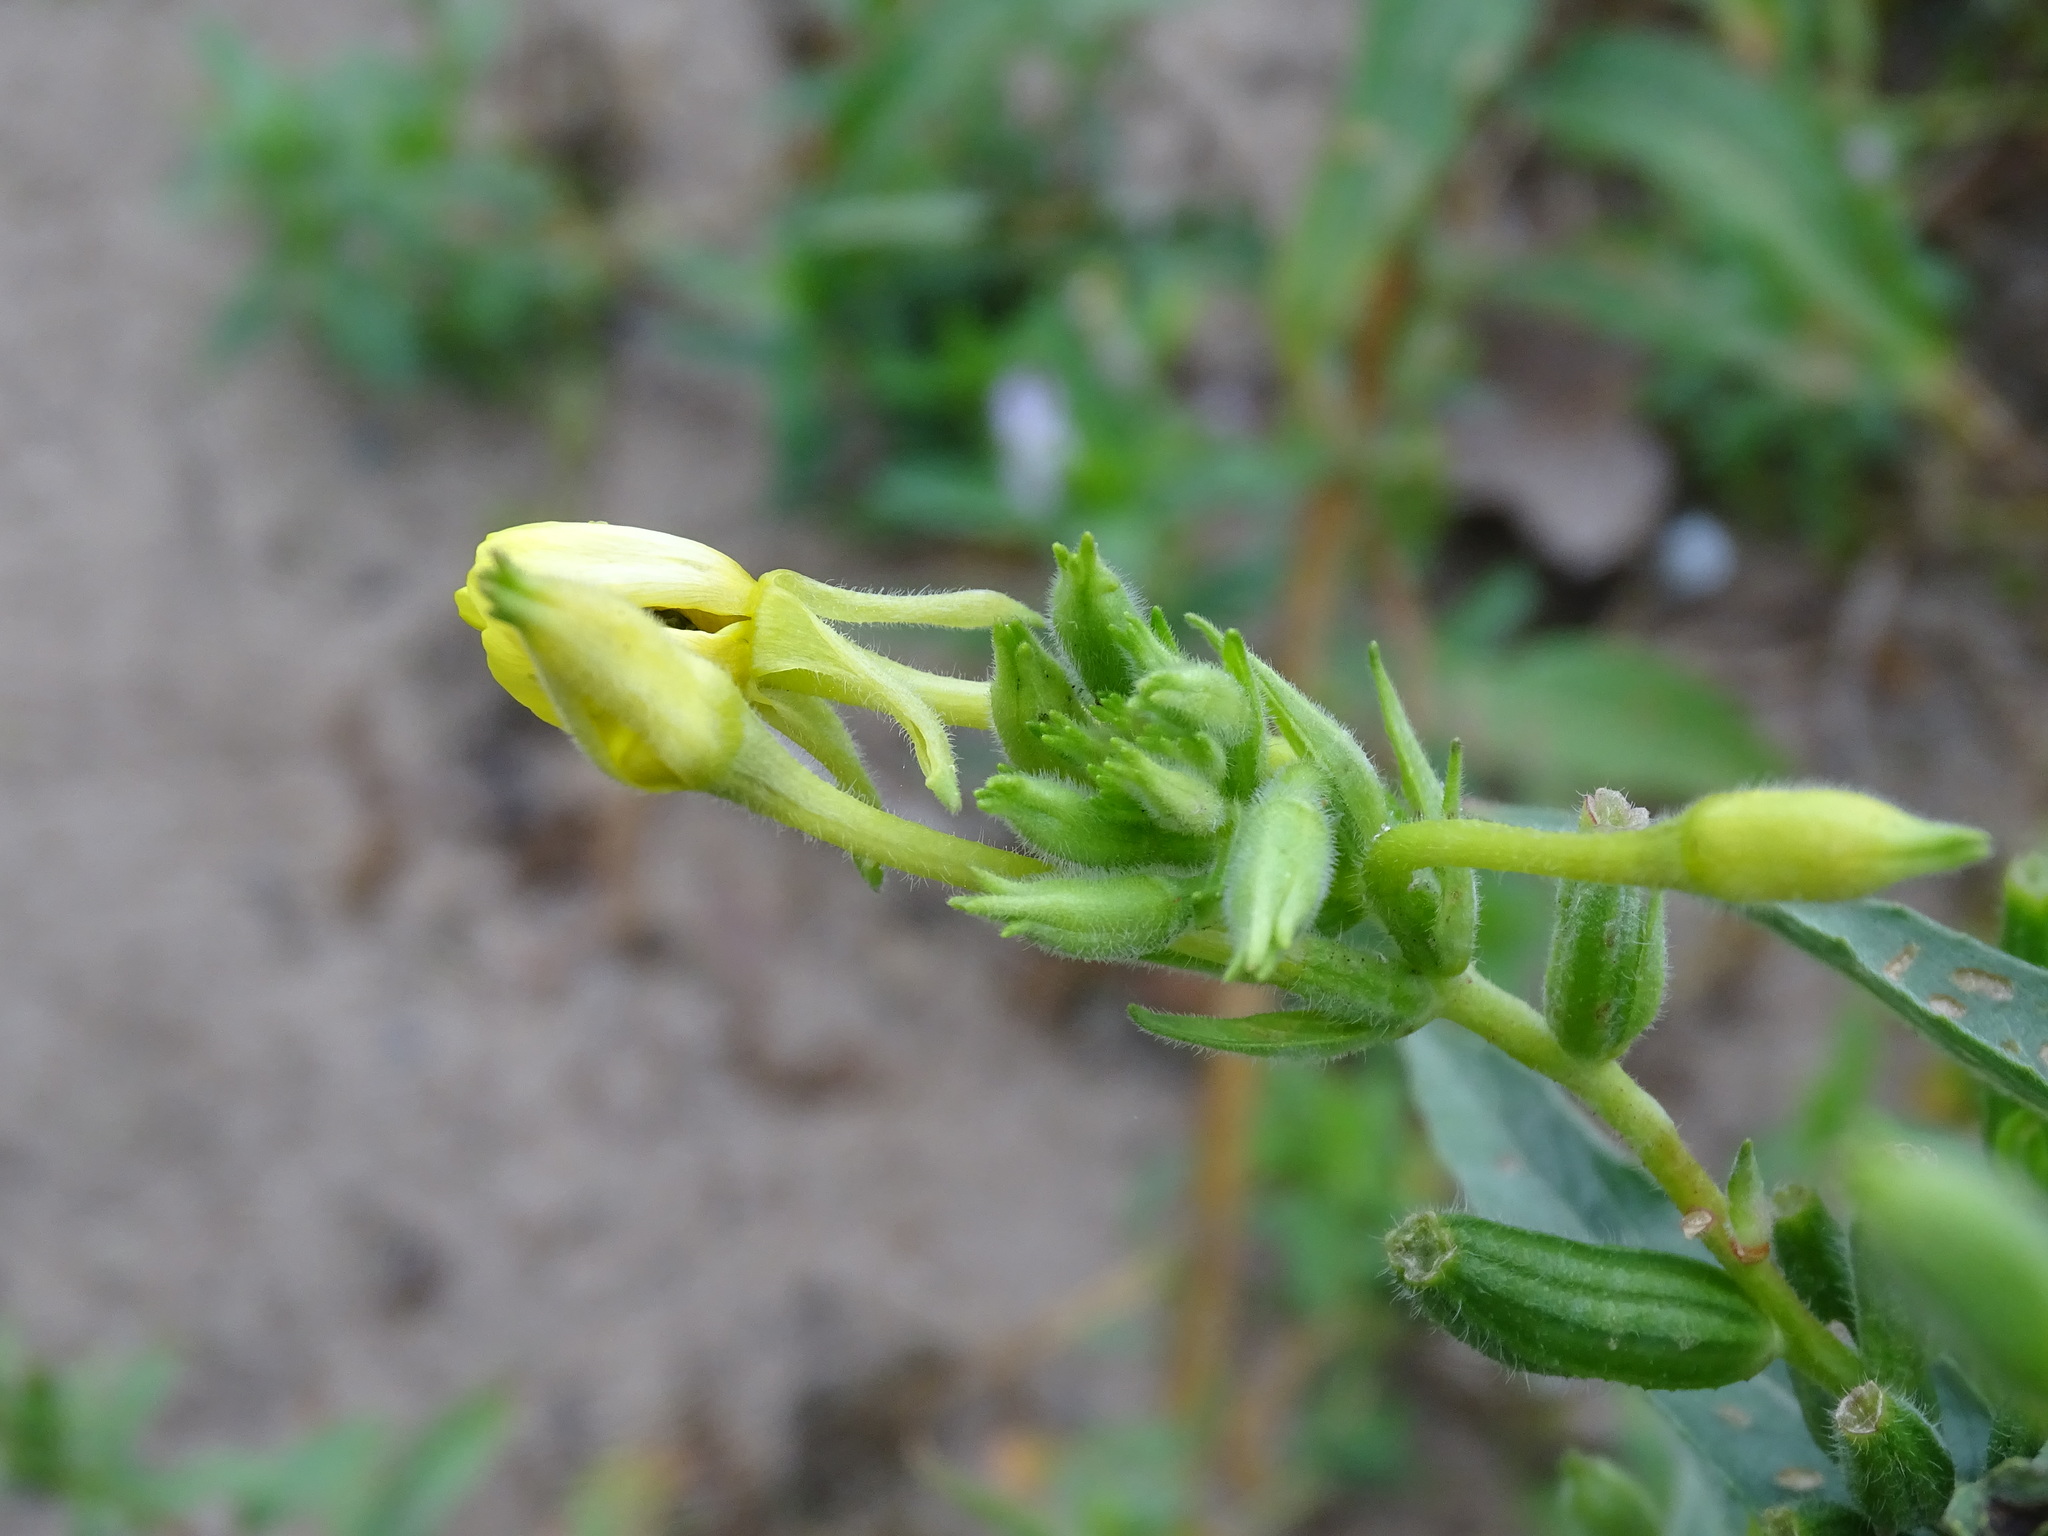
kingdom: Plantae
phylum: Tracheophyta
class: Magnoliopsida
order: Myrtales
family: Onagraceae
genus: Oenothera
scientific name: Oenothera parviflora
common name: Least evening-primrose
